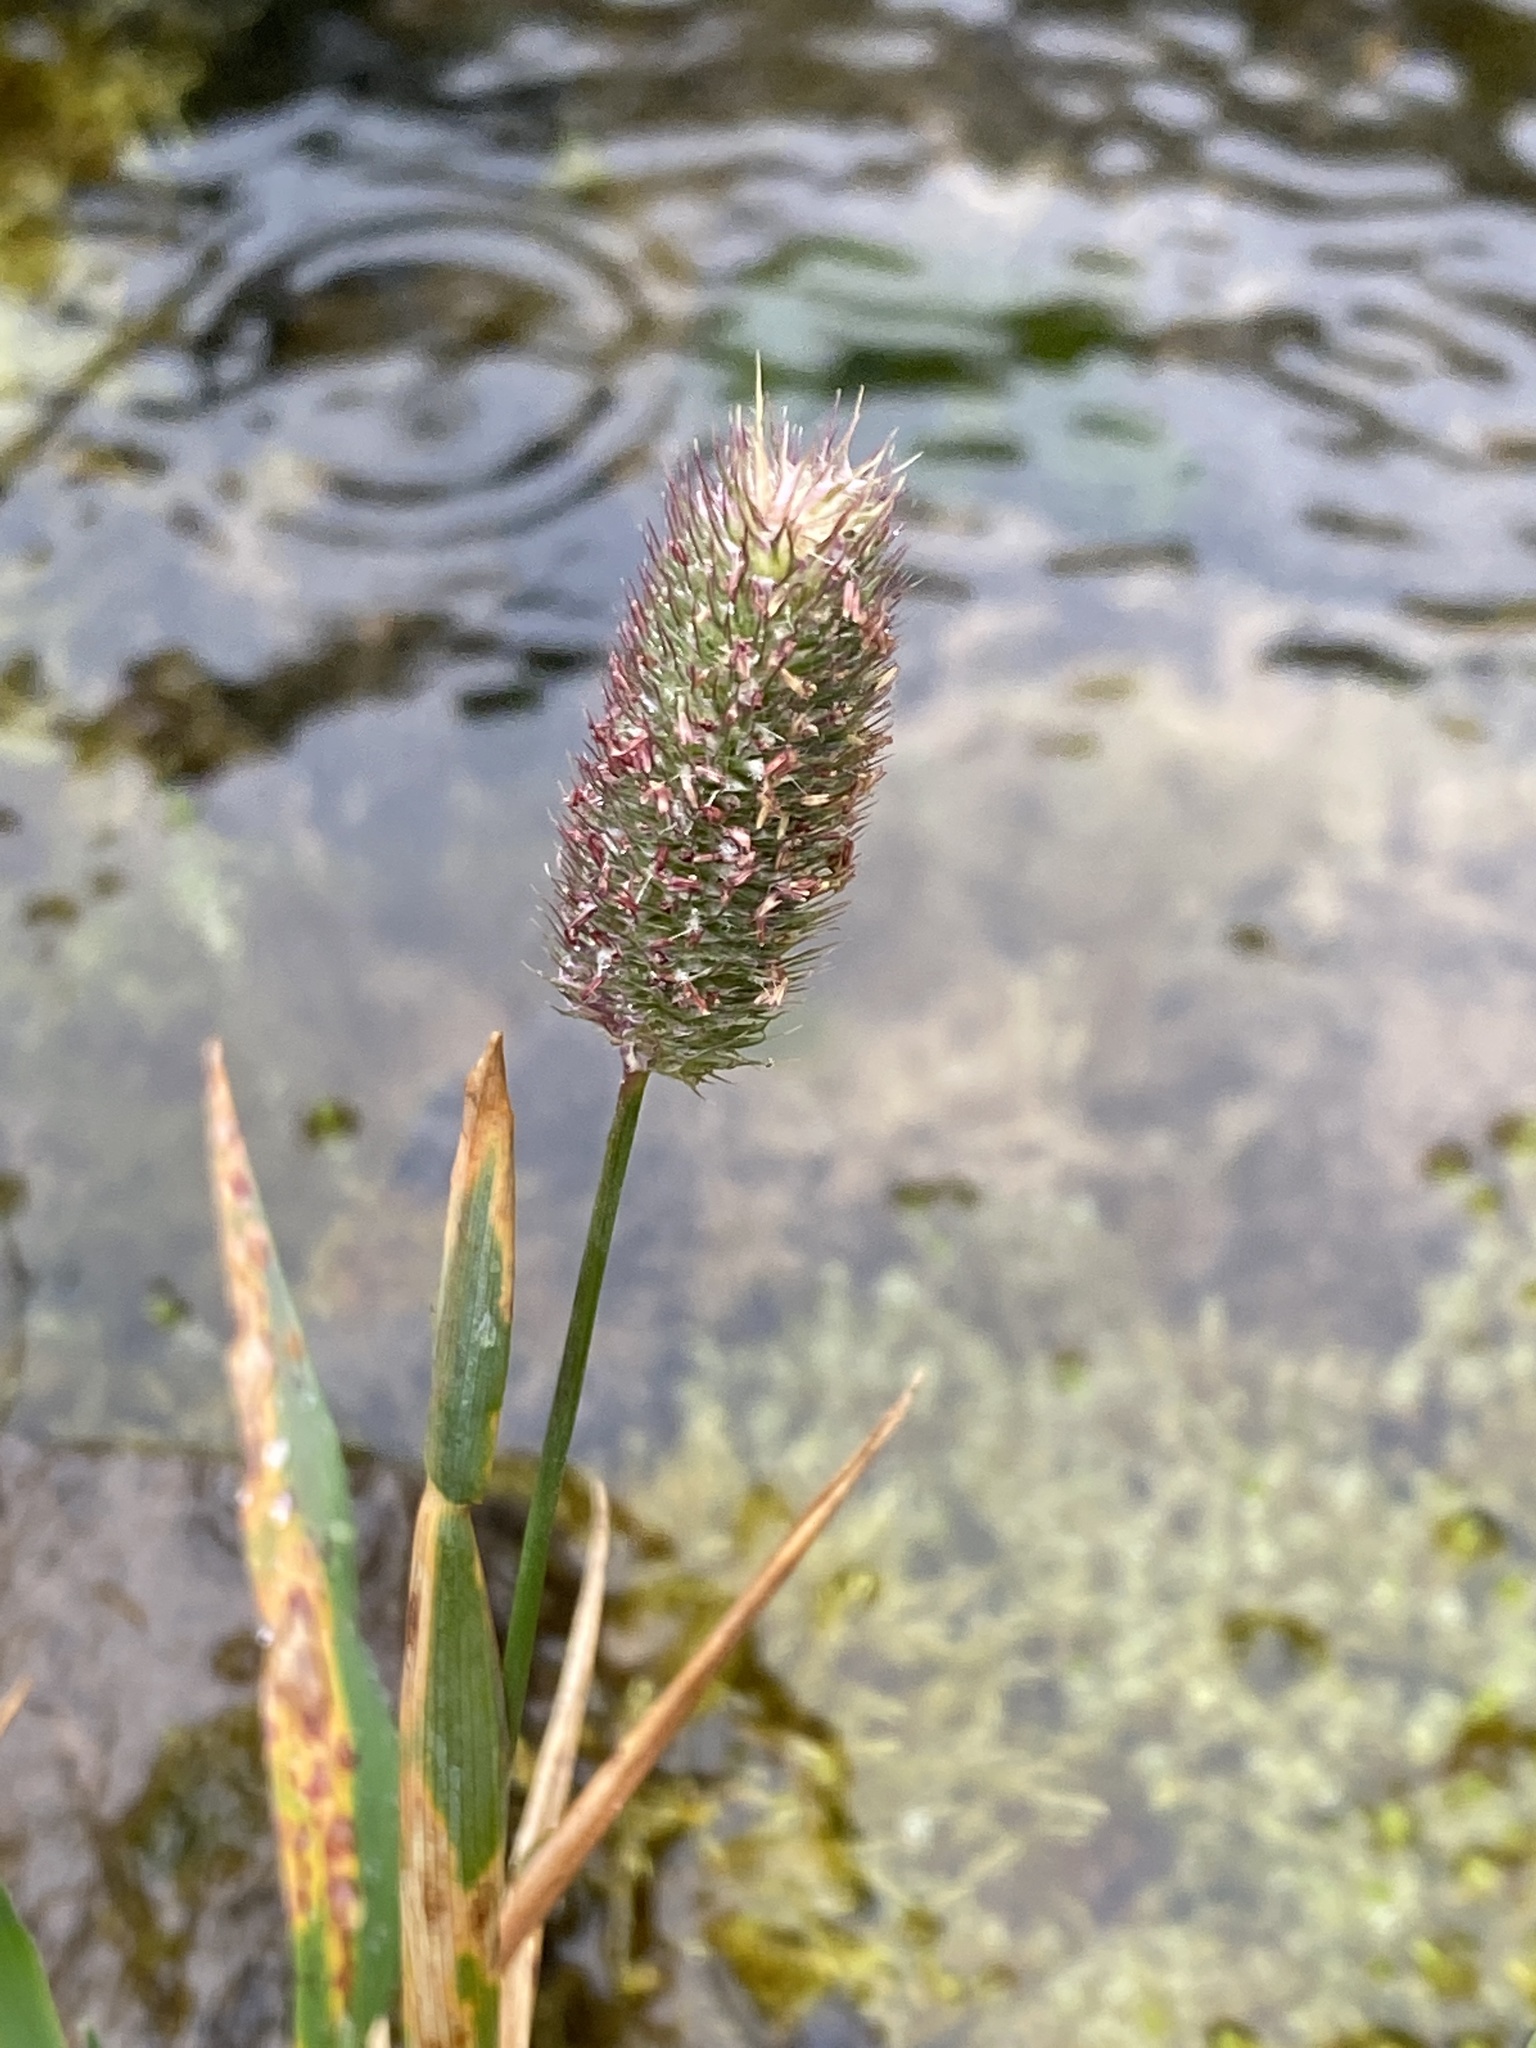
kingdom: Plantae
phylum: Tracheophyta
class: Liliopsida
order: Poales
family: Poaceae
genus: Phleum
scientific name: Phleum alpinum
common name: Alpine cat's-tail
